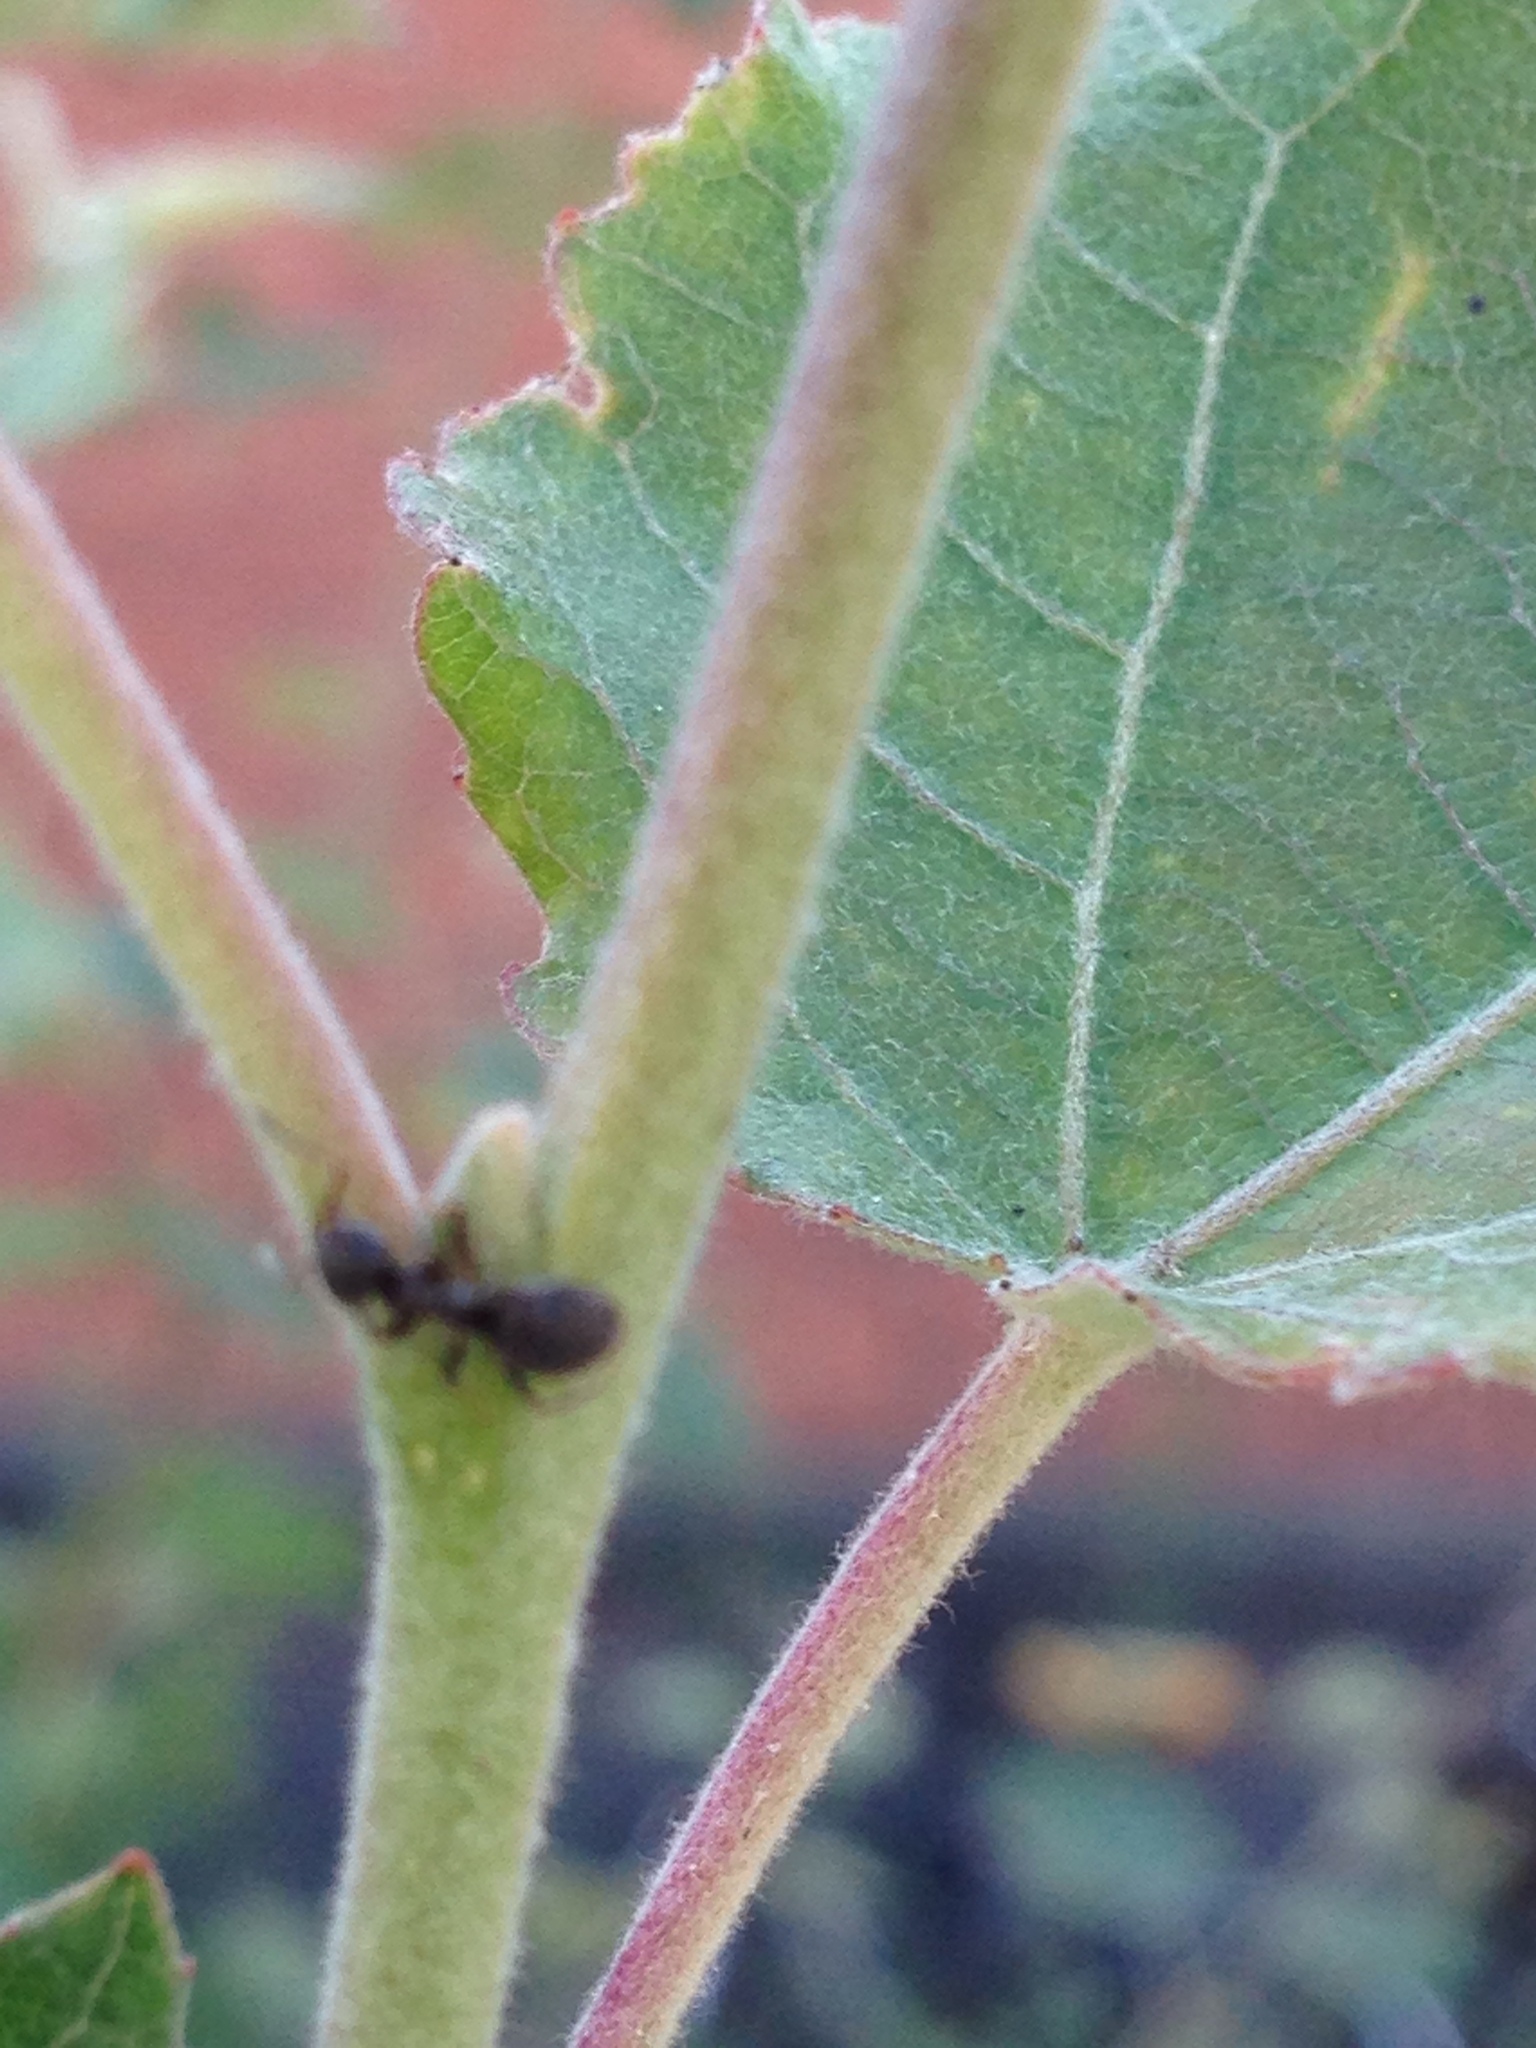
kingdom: Animalia
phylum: Arthropoda
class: Insecta
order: Hymenoptera
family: Formicidae
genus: Lasius
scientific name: Lasius
